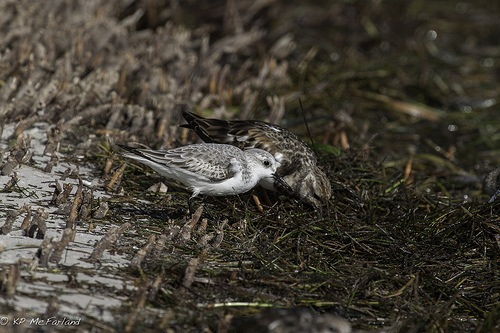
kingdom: Animalia
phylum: Chordata
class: Aves
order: Charadriiformes
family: Scolopacidae
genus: Arenaria
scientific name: Arenaria interpres
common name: Ruddy turnstone
